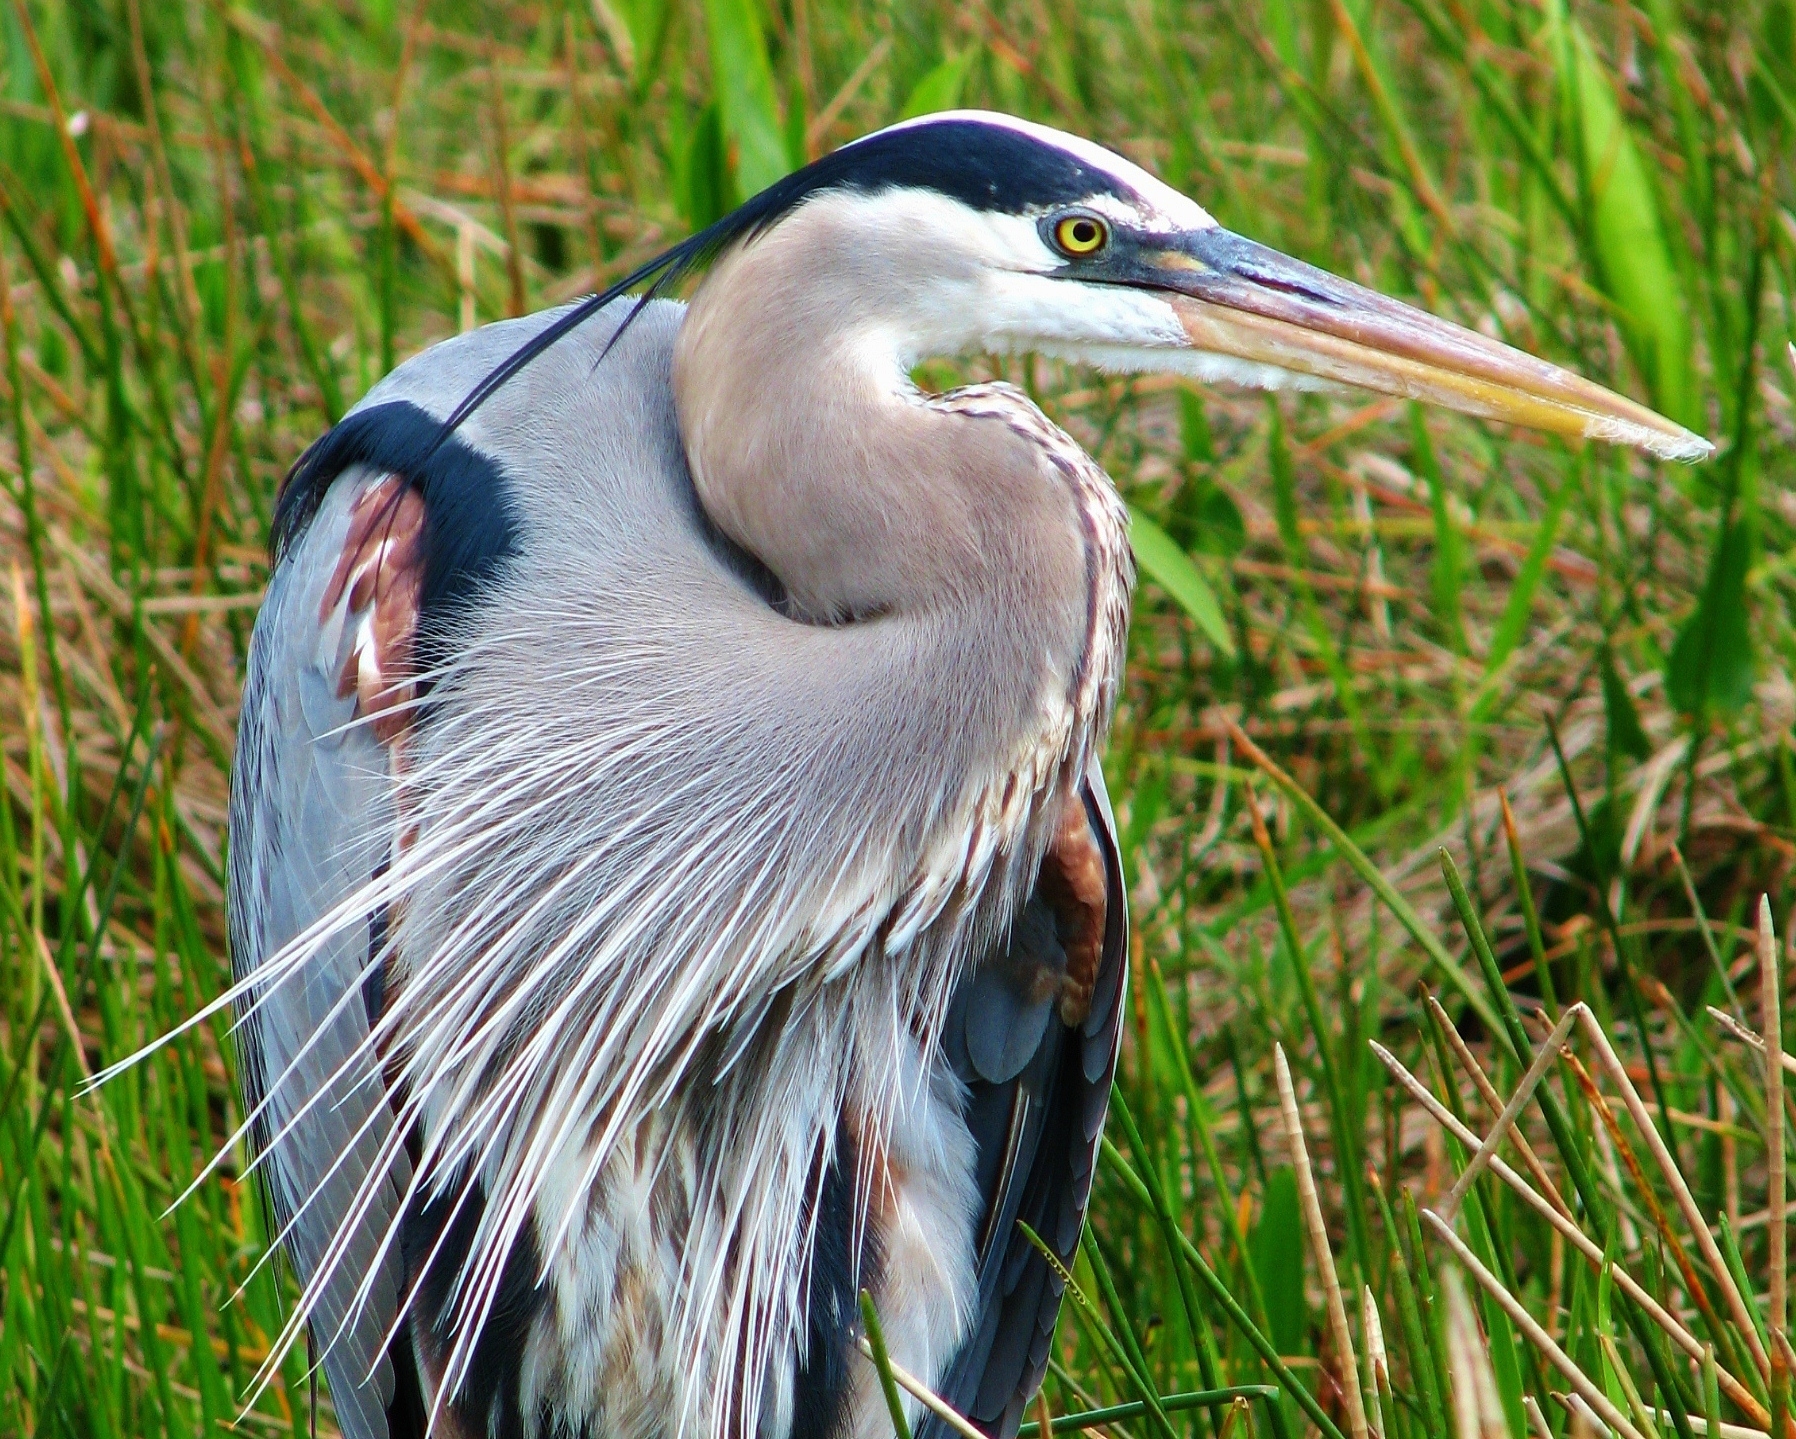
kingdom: Animalia
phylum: Chordata
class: Aves
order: Pelecaniformes
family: Ardeidae
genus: Ardea
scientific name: Ardea herodias
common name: Great blue heron
